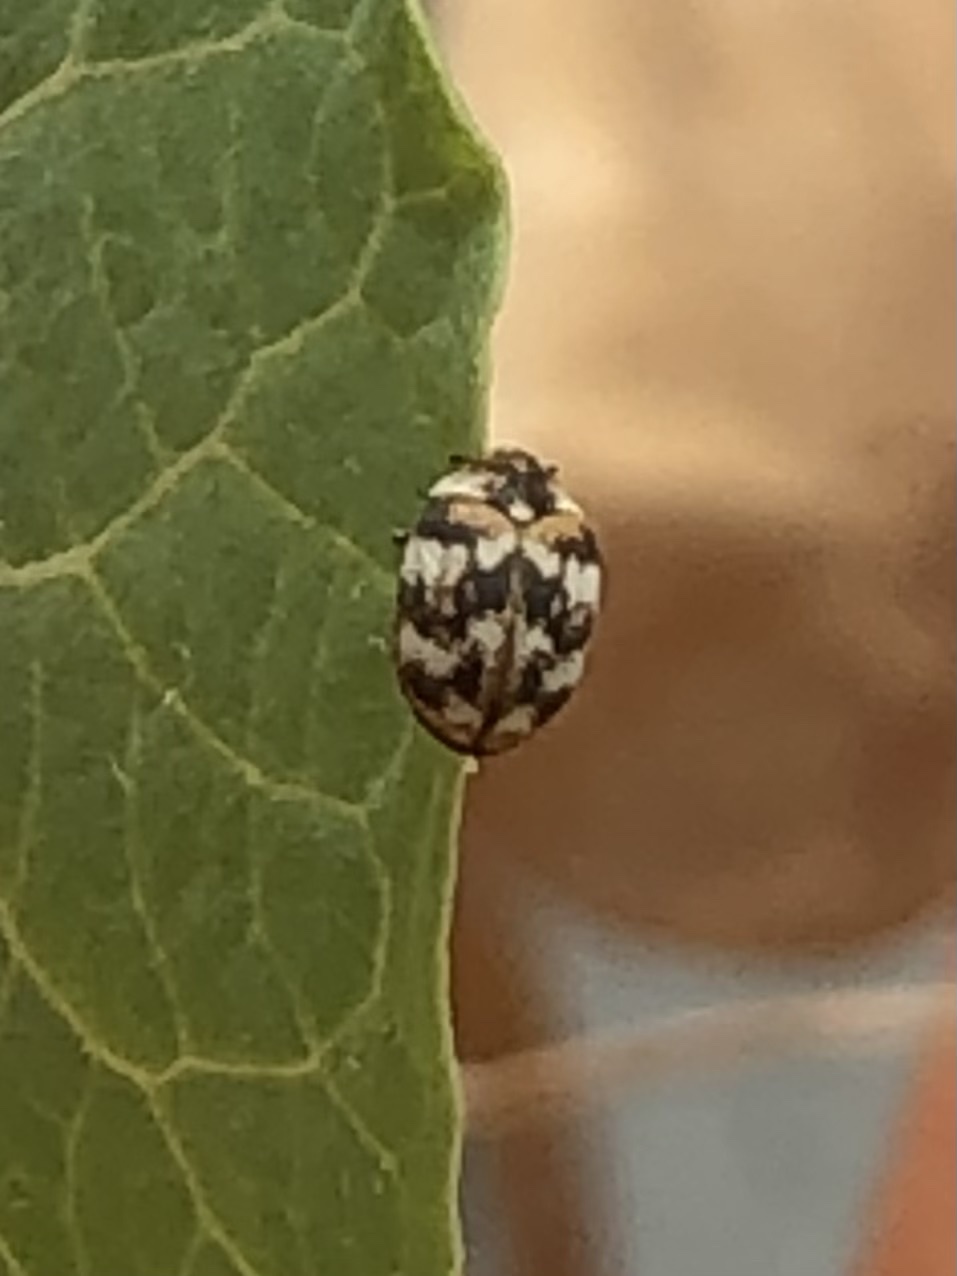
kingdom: Animalia
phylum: Arthropoda
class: Insecta
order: Coleoptera
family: Dermestidae
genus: Anthrenus
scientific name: Anthrenus verbasci
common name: Varied carpet beetle
